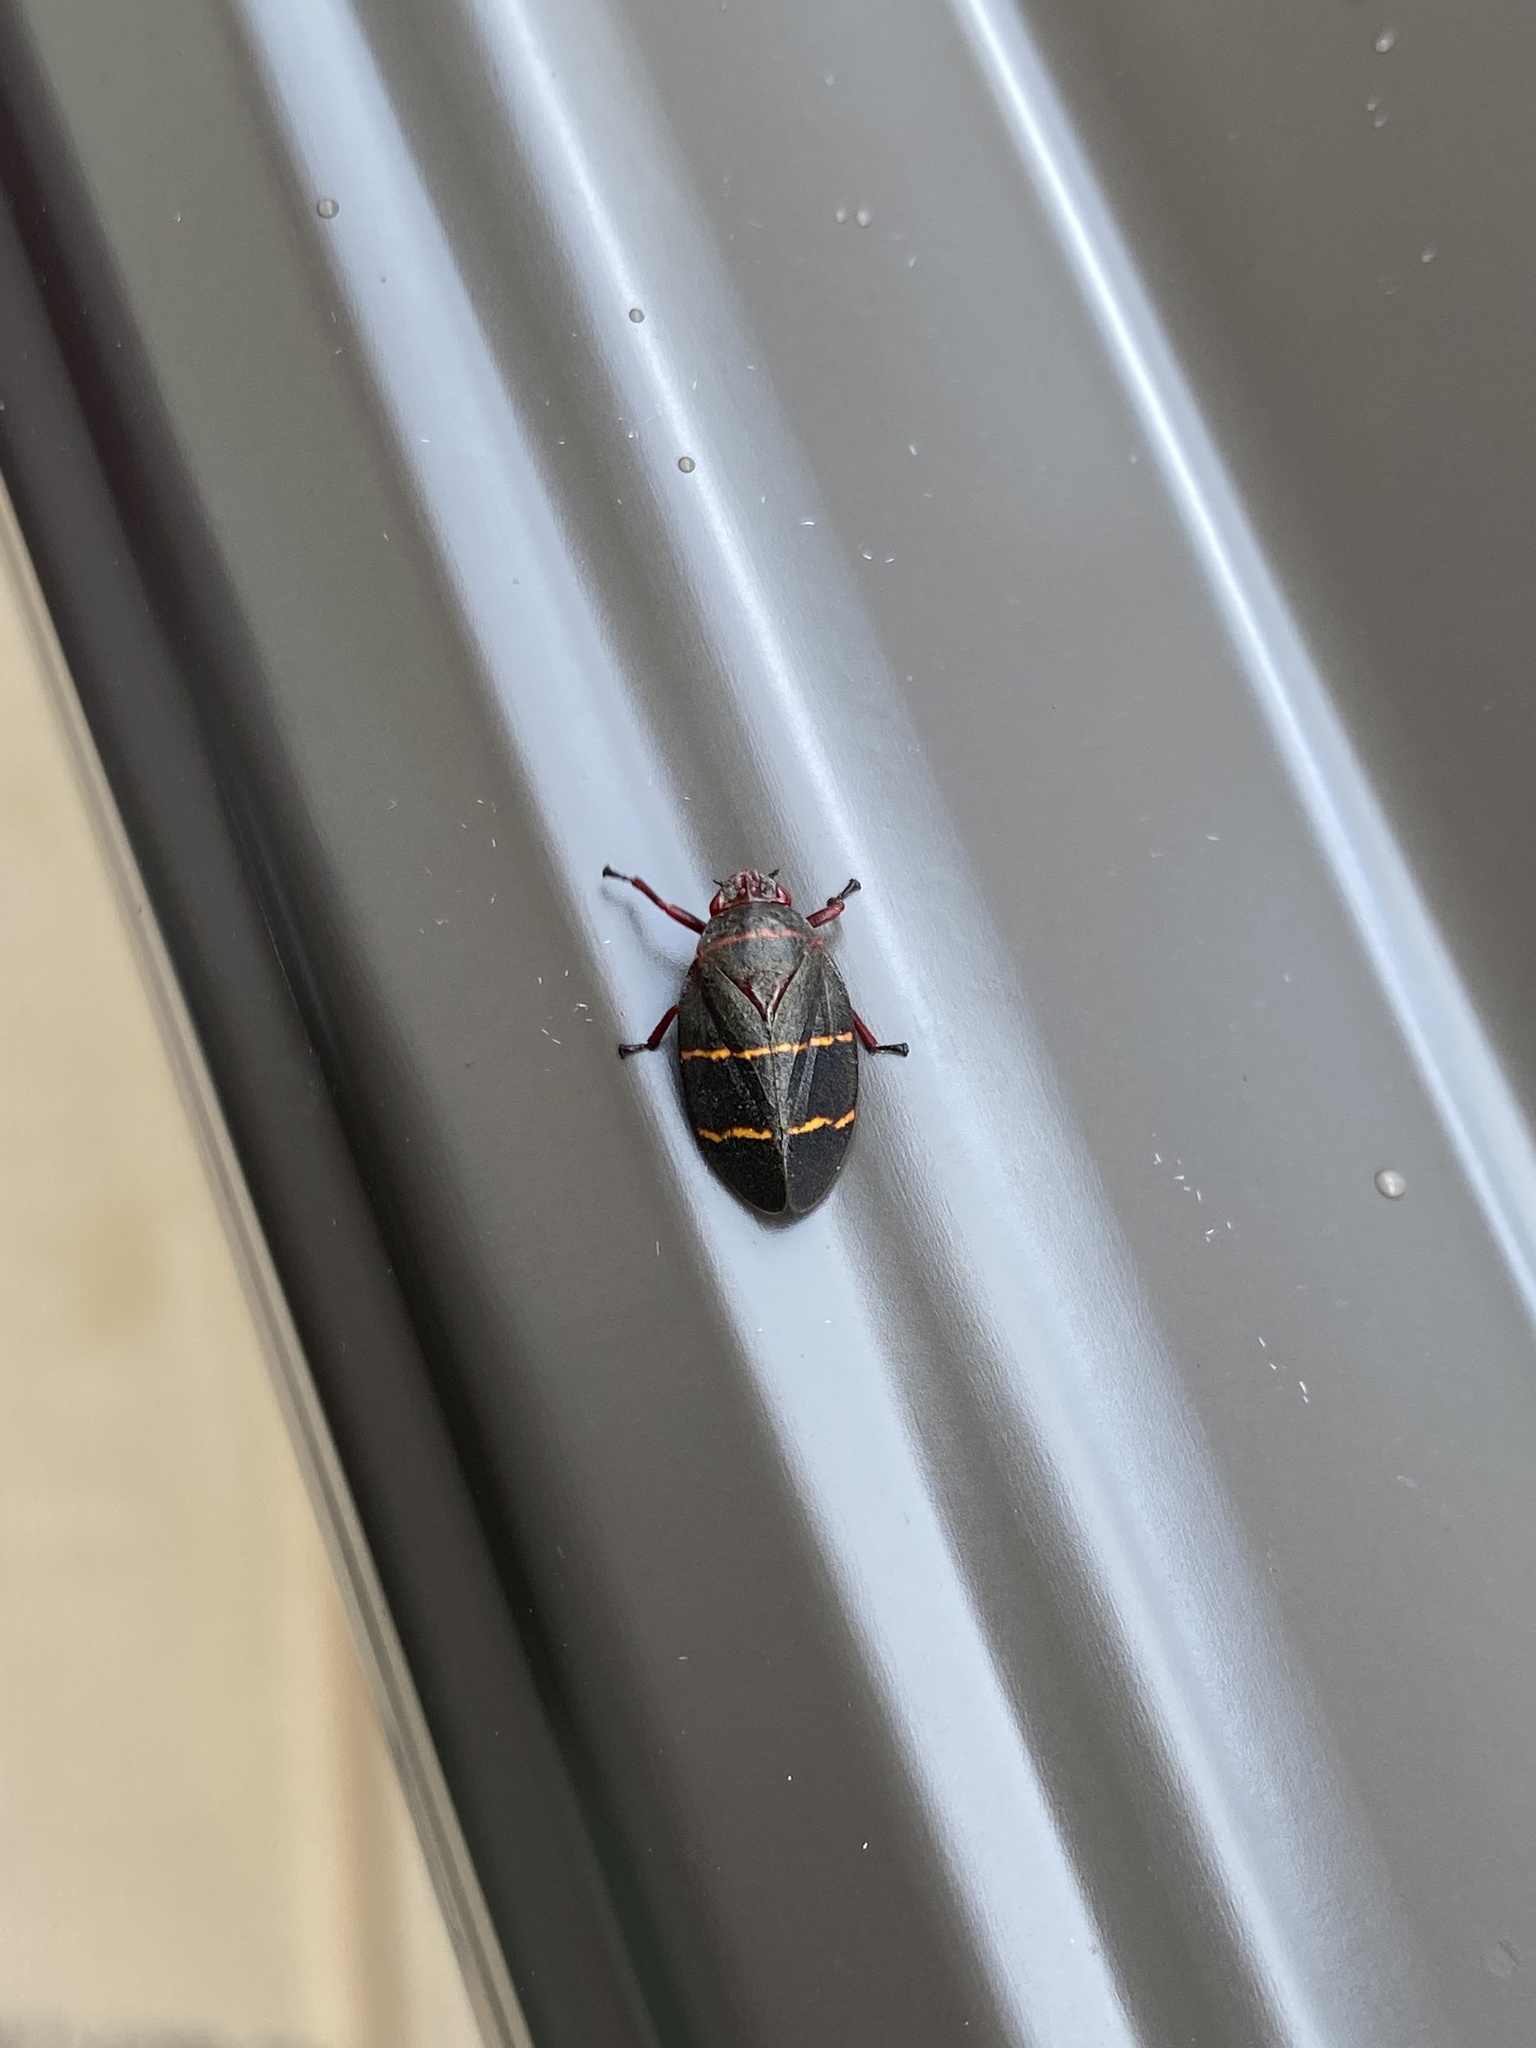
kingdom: Animalia
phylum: Arthropoda
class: Insecta
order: Hemiptera
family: Cercopidae
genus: Prosapia
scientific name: Prosapia bicincta
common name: Twolined spittlebug
